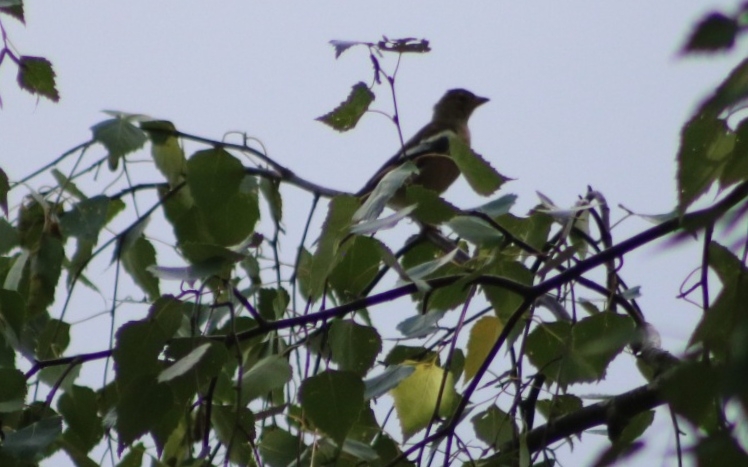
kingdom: Animalia
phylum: Chordata
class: Aves
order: Passeriformes
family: Fringillidae
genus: Fringilla
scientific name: Fringilla coelebs
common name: Common chaffinch
